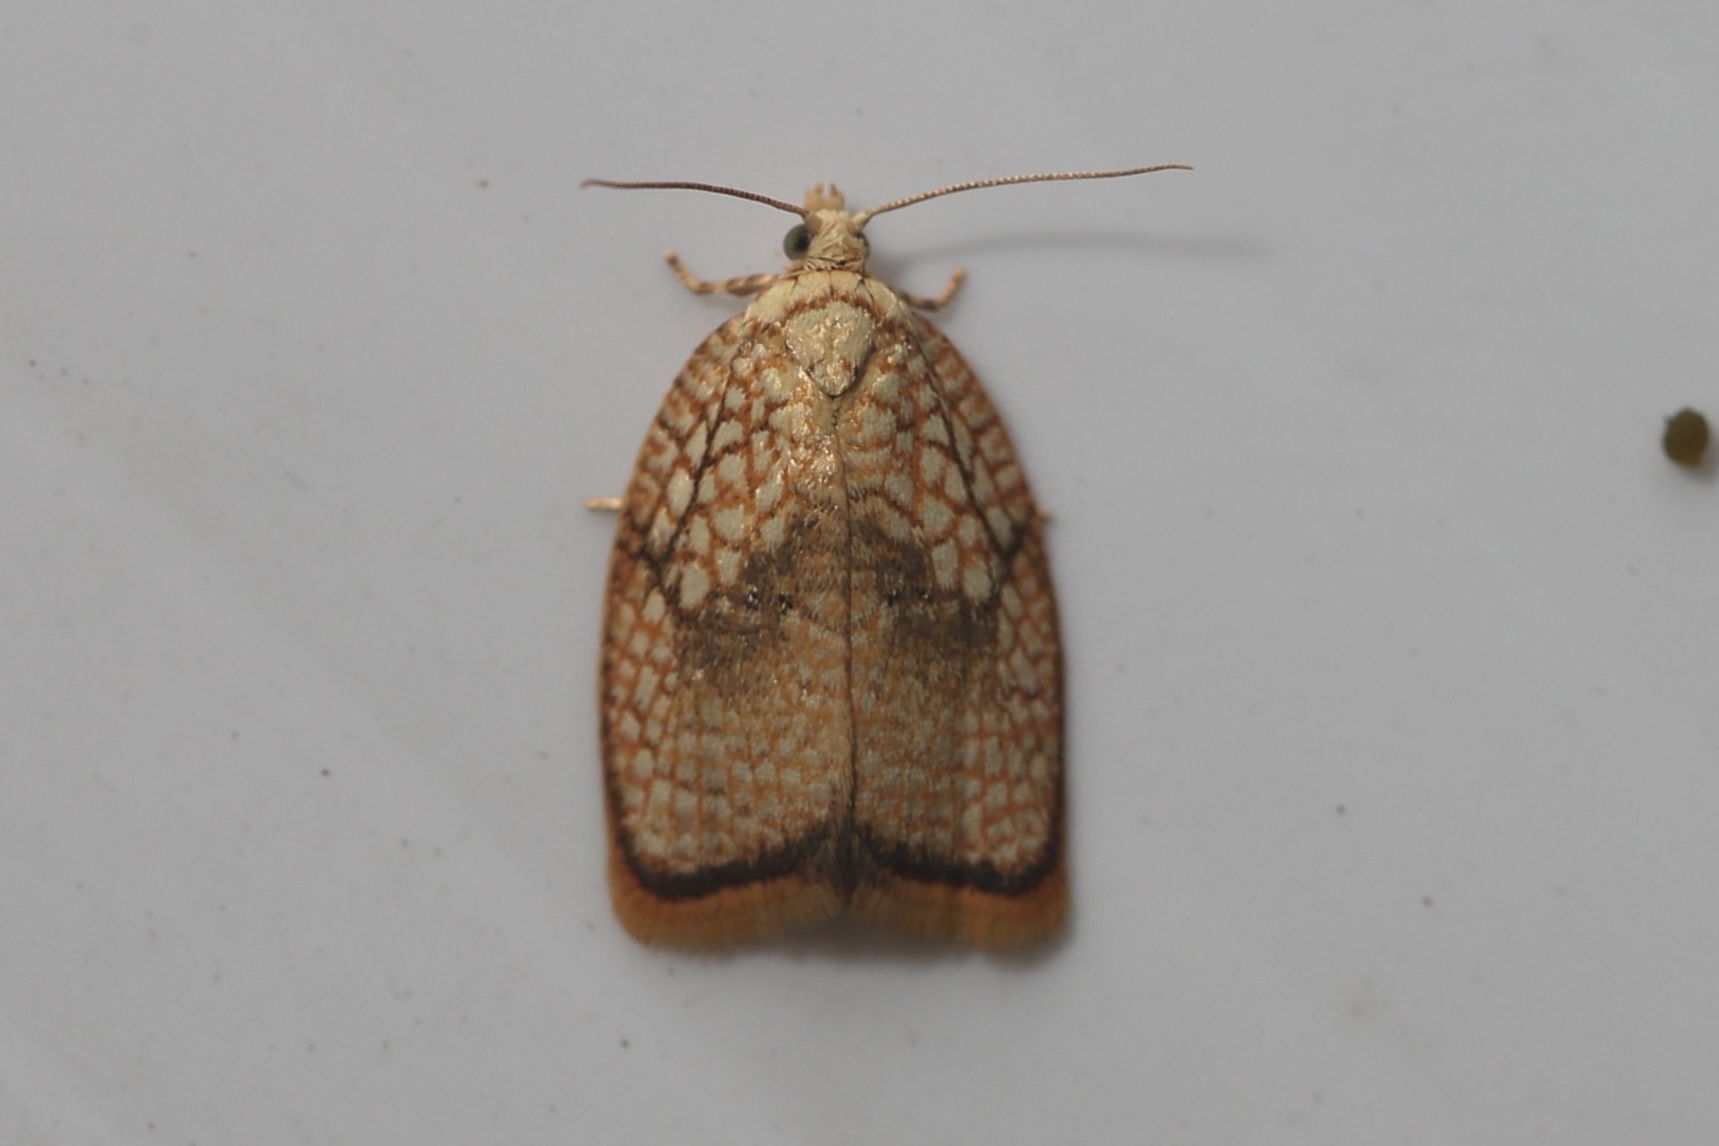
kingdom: Animalia
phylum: Arthropoda
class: Insecta
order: Lepidoptera
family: Tortricidae
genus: Acleris
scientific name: Acleris forsskaleana
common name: Maple button
